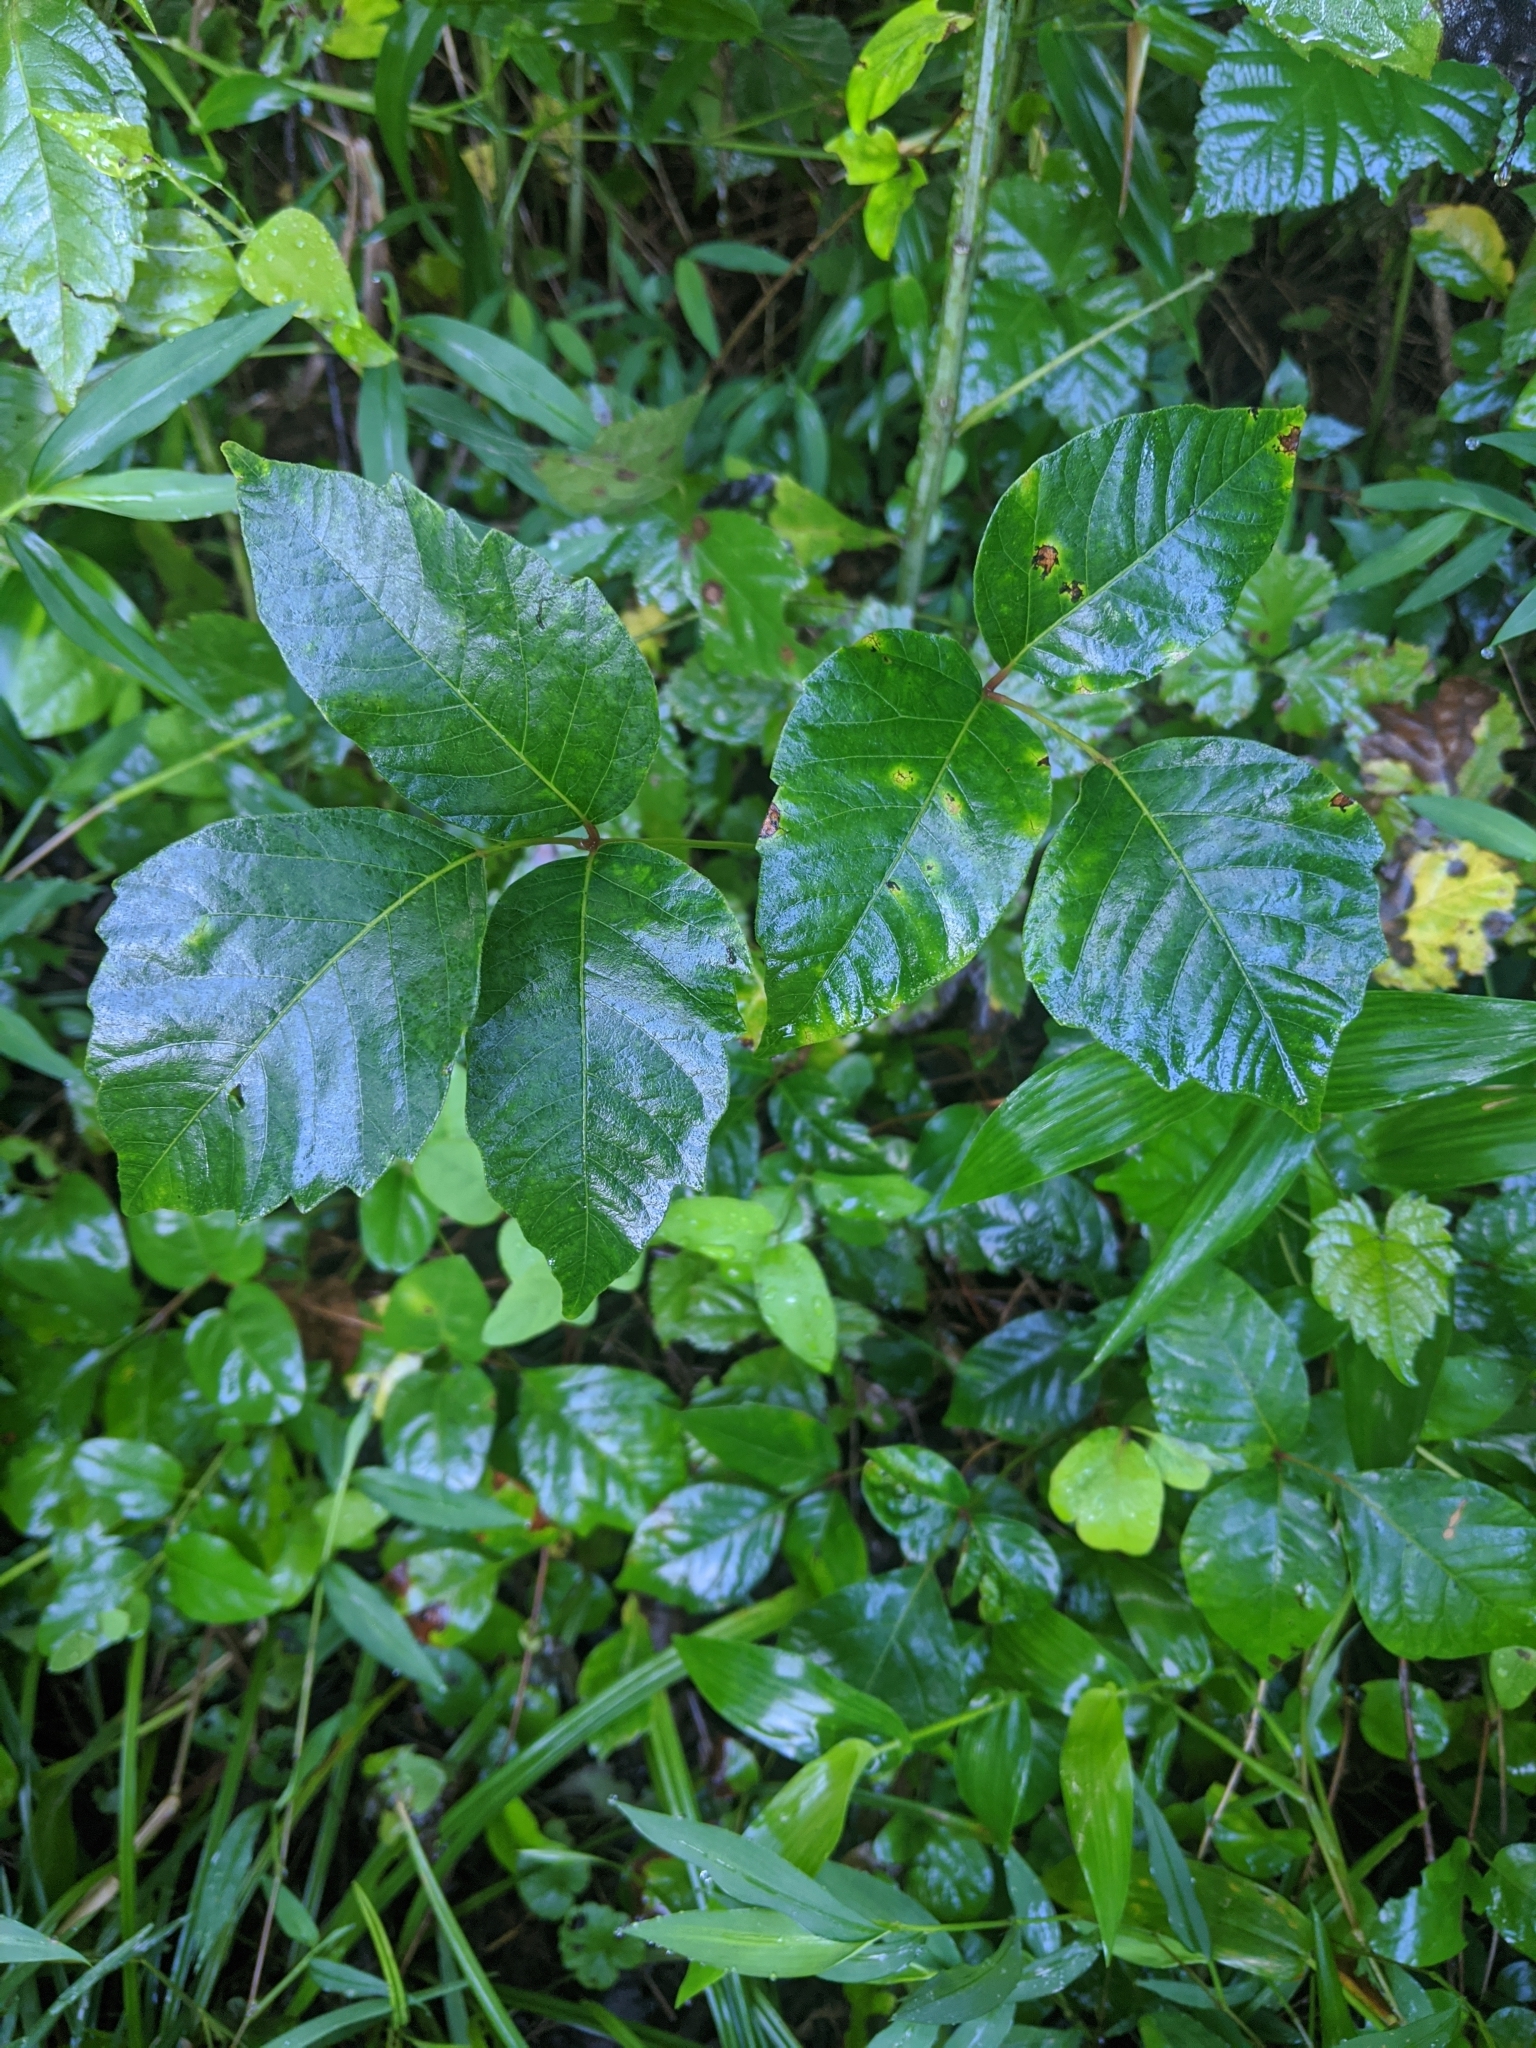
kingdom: Plantae
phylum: Tracheophyta
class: Magnoliopsida
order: Sapindales
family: Anacardiaceae
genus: Toxicodendron
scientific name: Toxicodendron radicans
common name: Poison ivy
